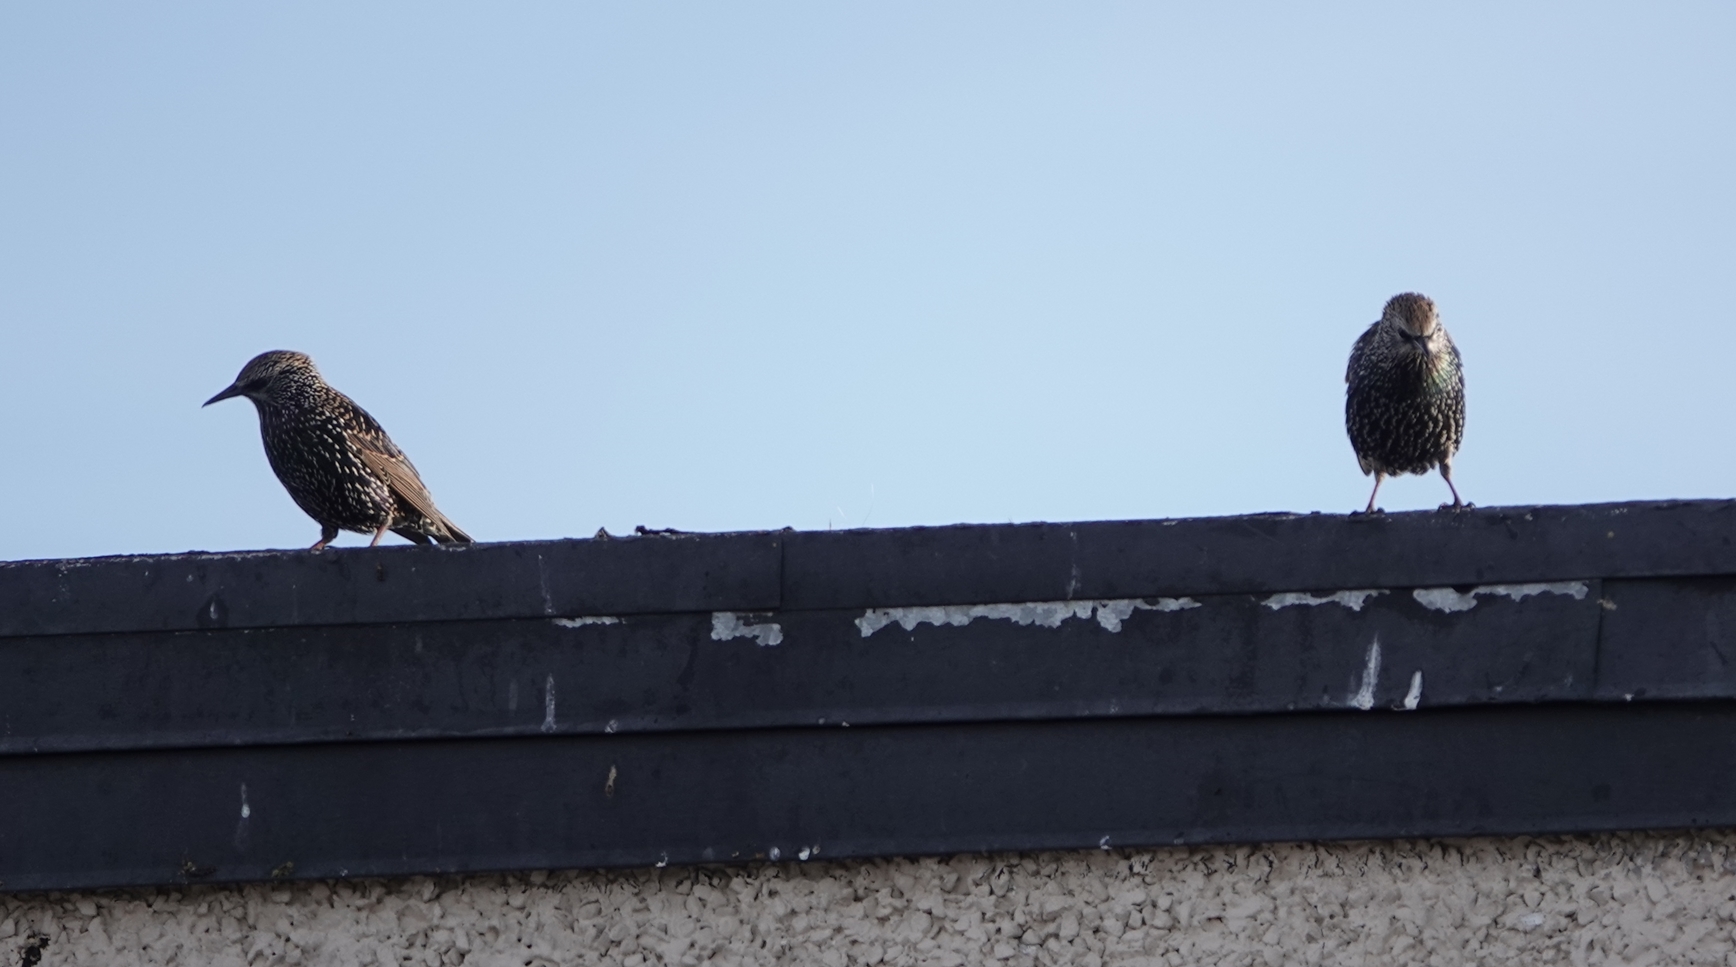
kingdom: Animalia
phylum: Chordata
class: Aves
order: Passeriformes
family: Sturnidae
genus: Sturnus
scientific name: Sturnus vulgaris
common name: Common starling
